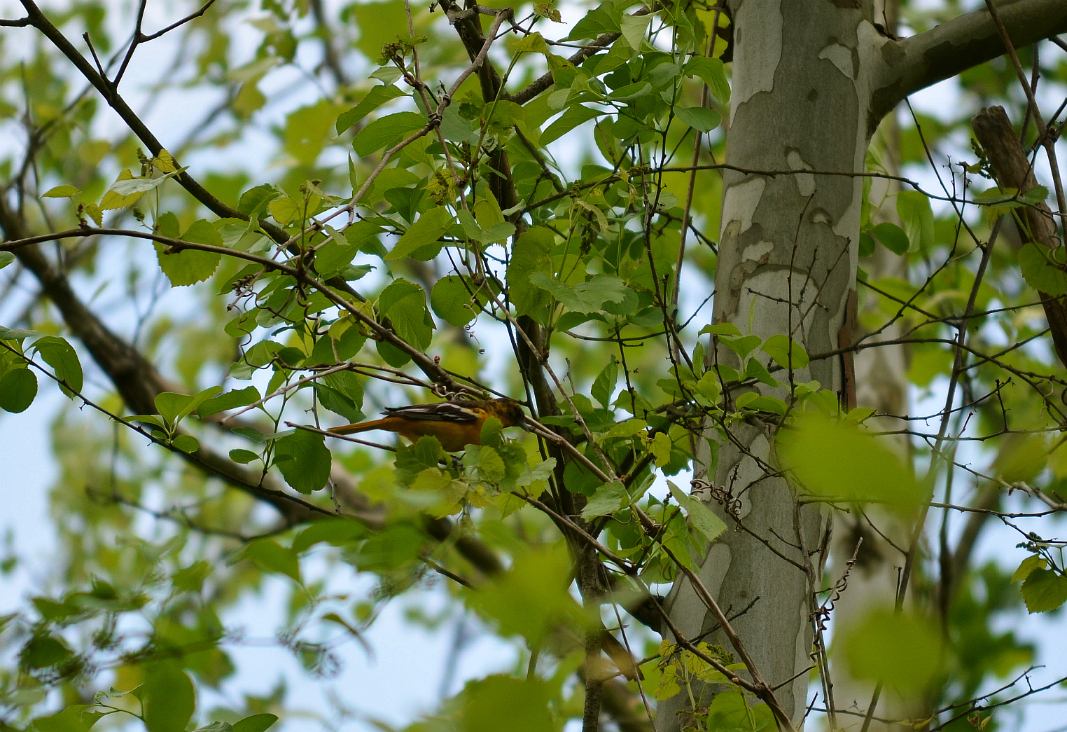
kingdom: Animalia
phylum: Chordata
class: Aves
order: Passeriformes
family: Icteridae
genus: Icterus
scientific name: Icterus galbula
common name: Baltimore oriole
